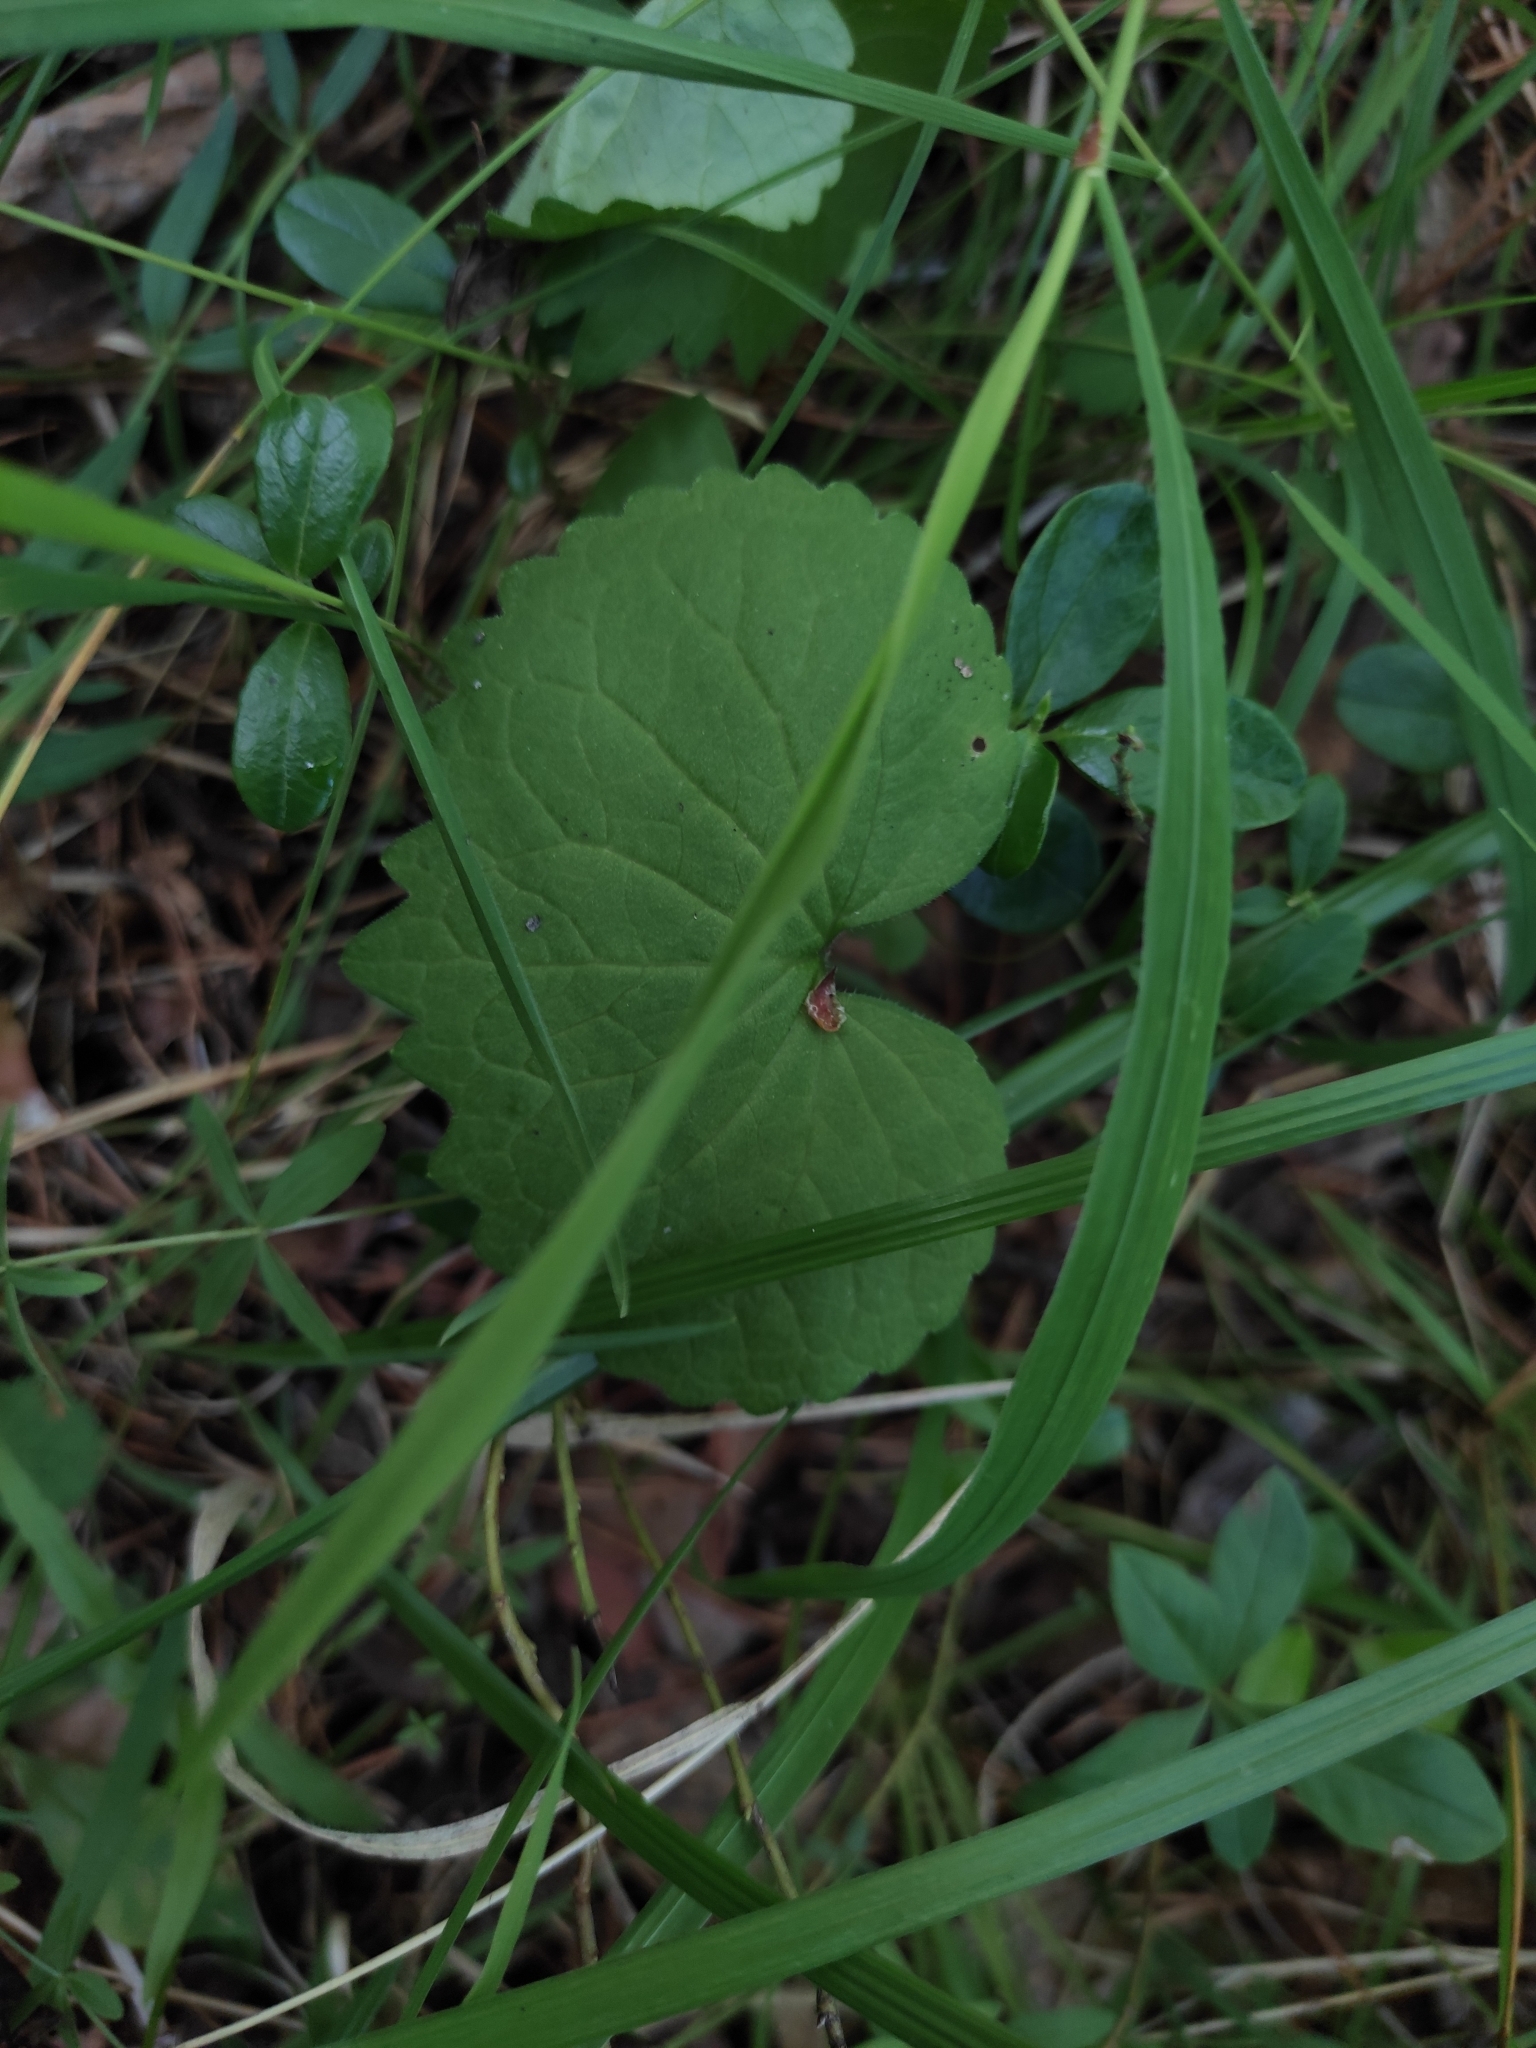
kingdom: Plantae
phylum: Tracheophyta
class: Magnoliopsida
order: Malpighiales
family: Violaceae
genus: Viola
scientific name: Viola uniflora
